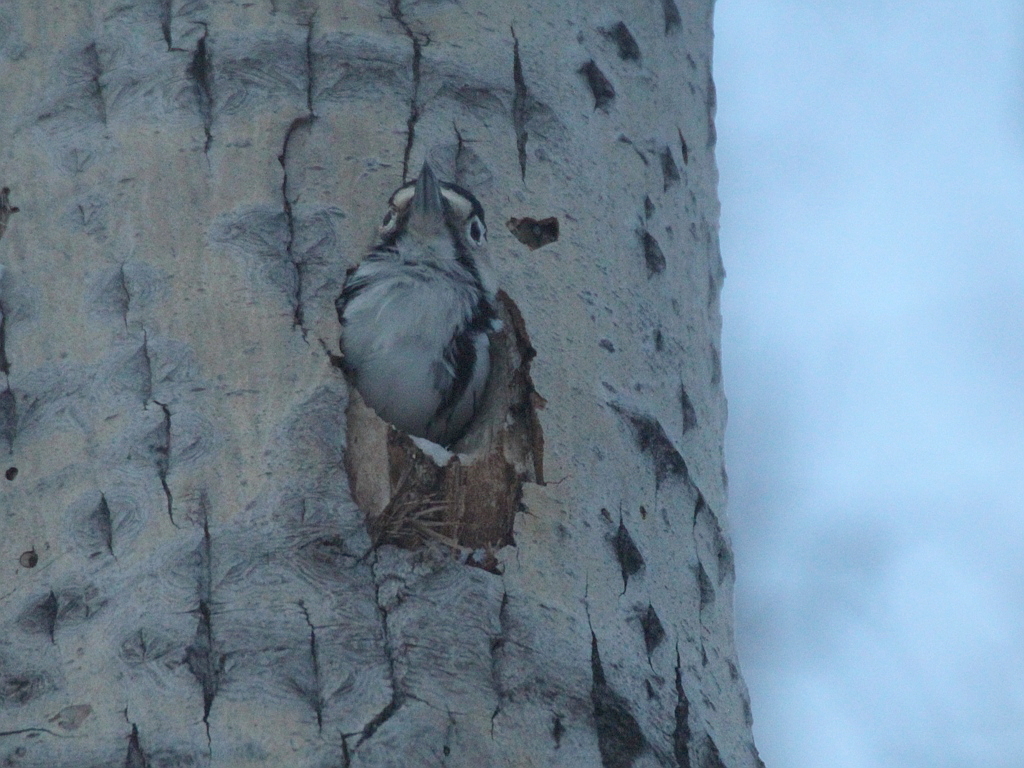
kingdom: Animalia
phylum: Chordata
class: Aves
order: Piciformes
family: Picidae
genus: Dendrocopos
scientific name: Dendrocopos leucotos
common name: White-backed woodpecker
